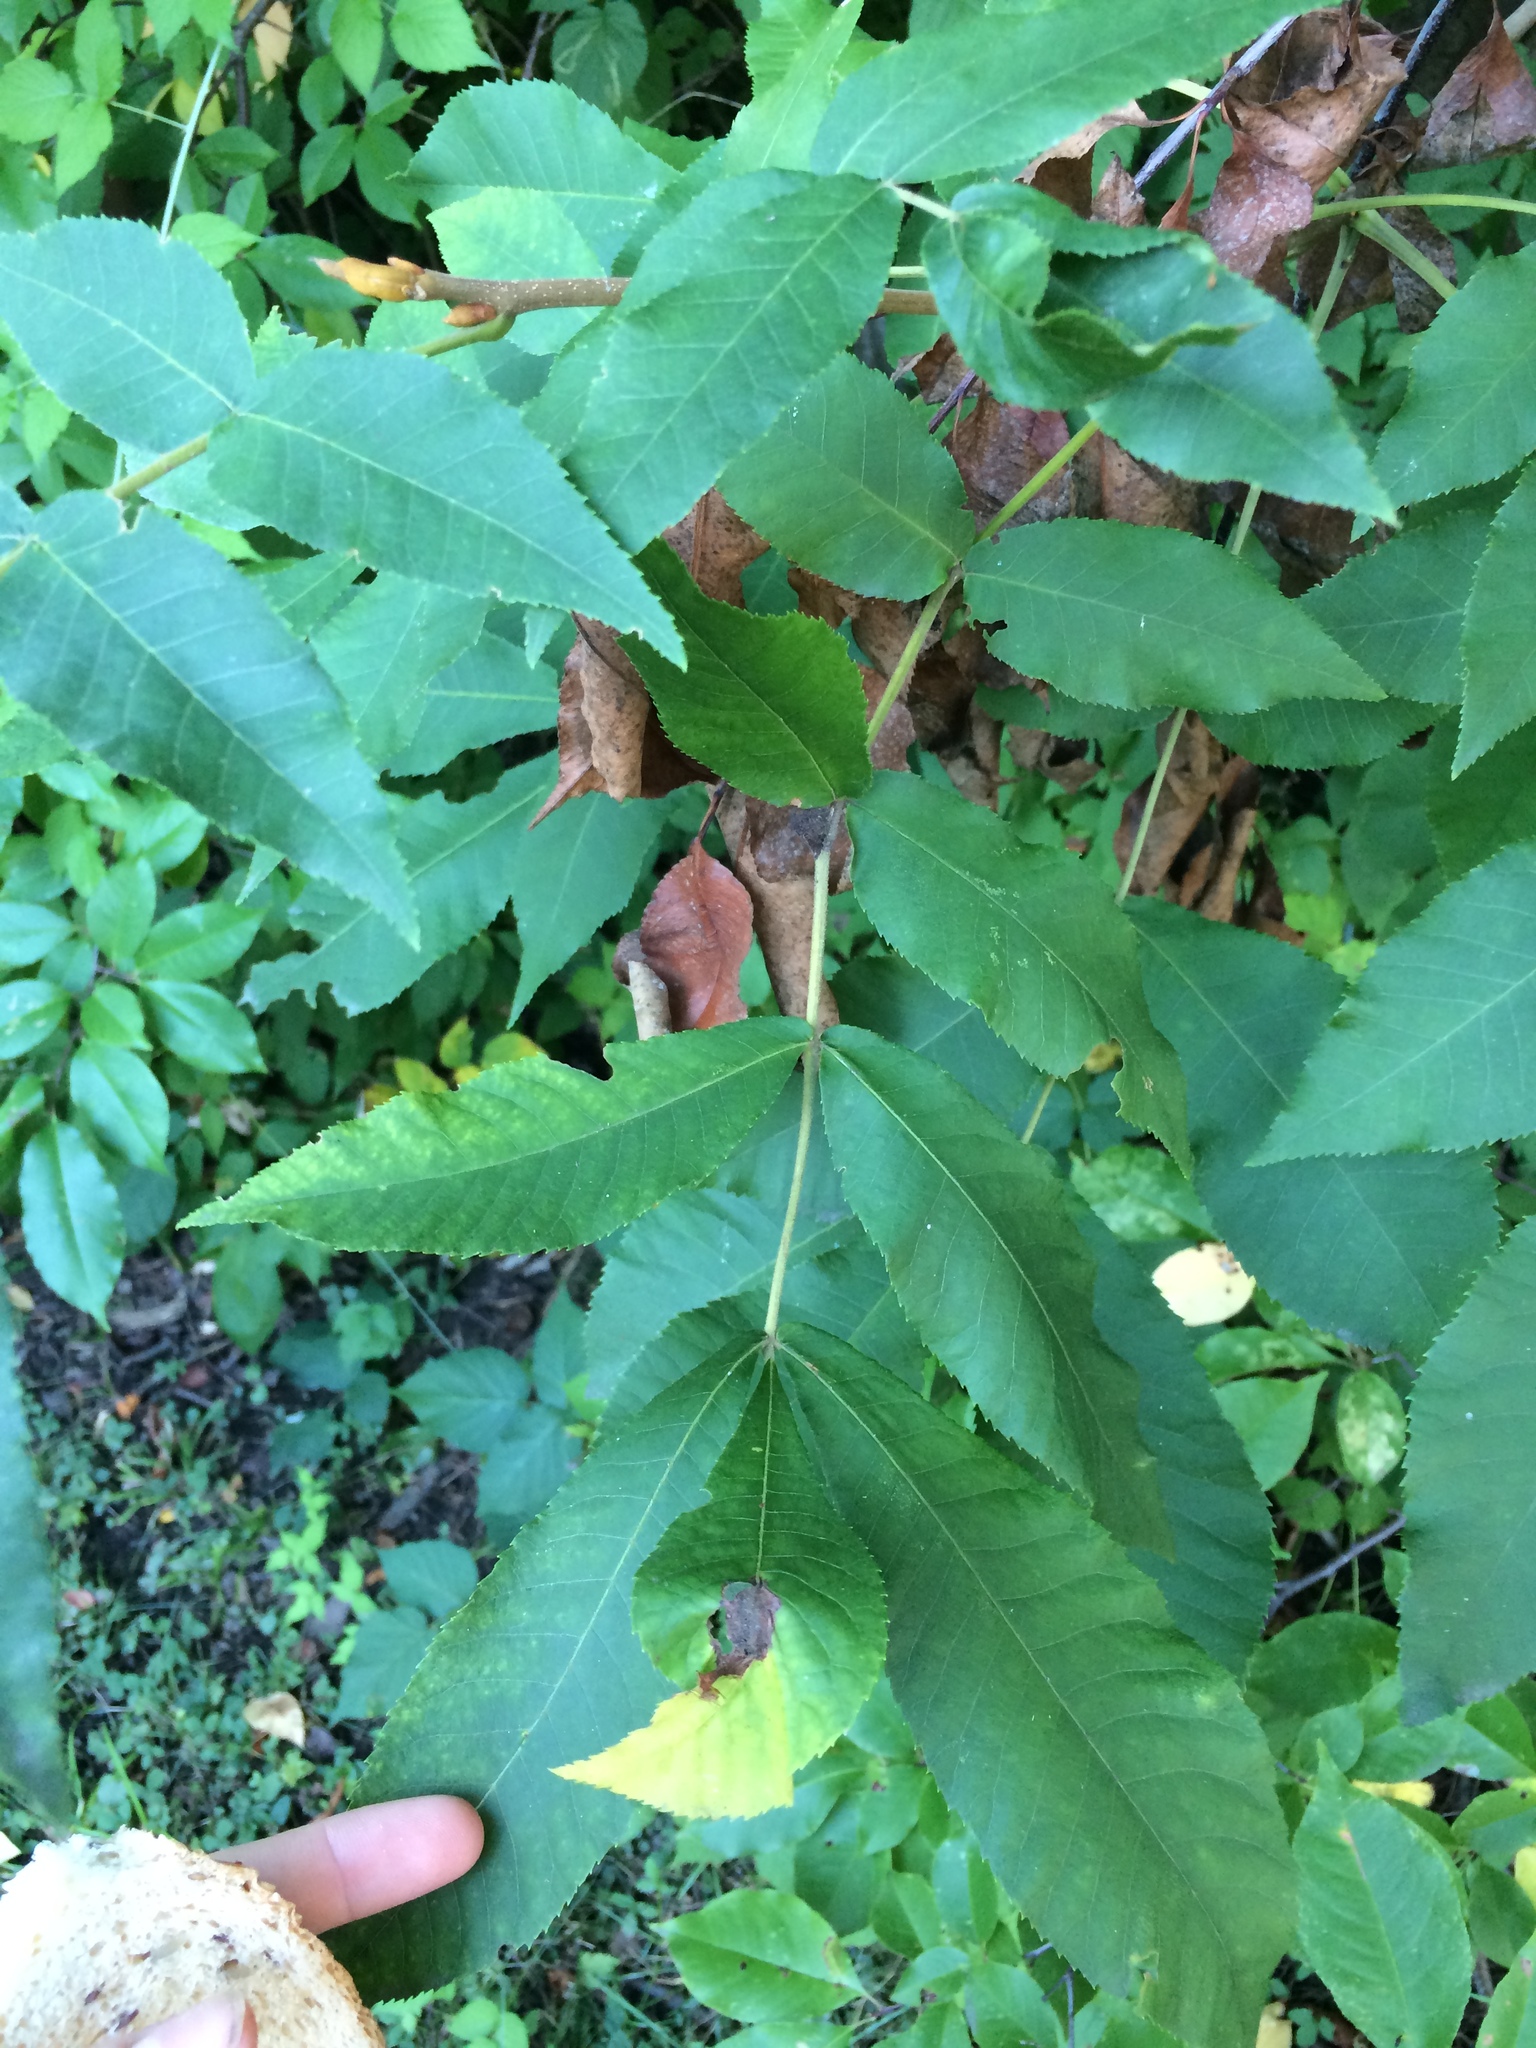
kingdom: Plantae
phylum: Tracheophyta
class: Magnoliopsida
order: Fagales
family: Juglandaceae
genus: Carya
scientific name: Carya cordiformis
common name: Bitternut hickory
